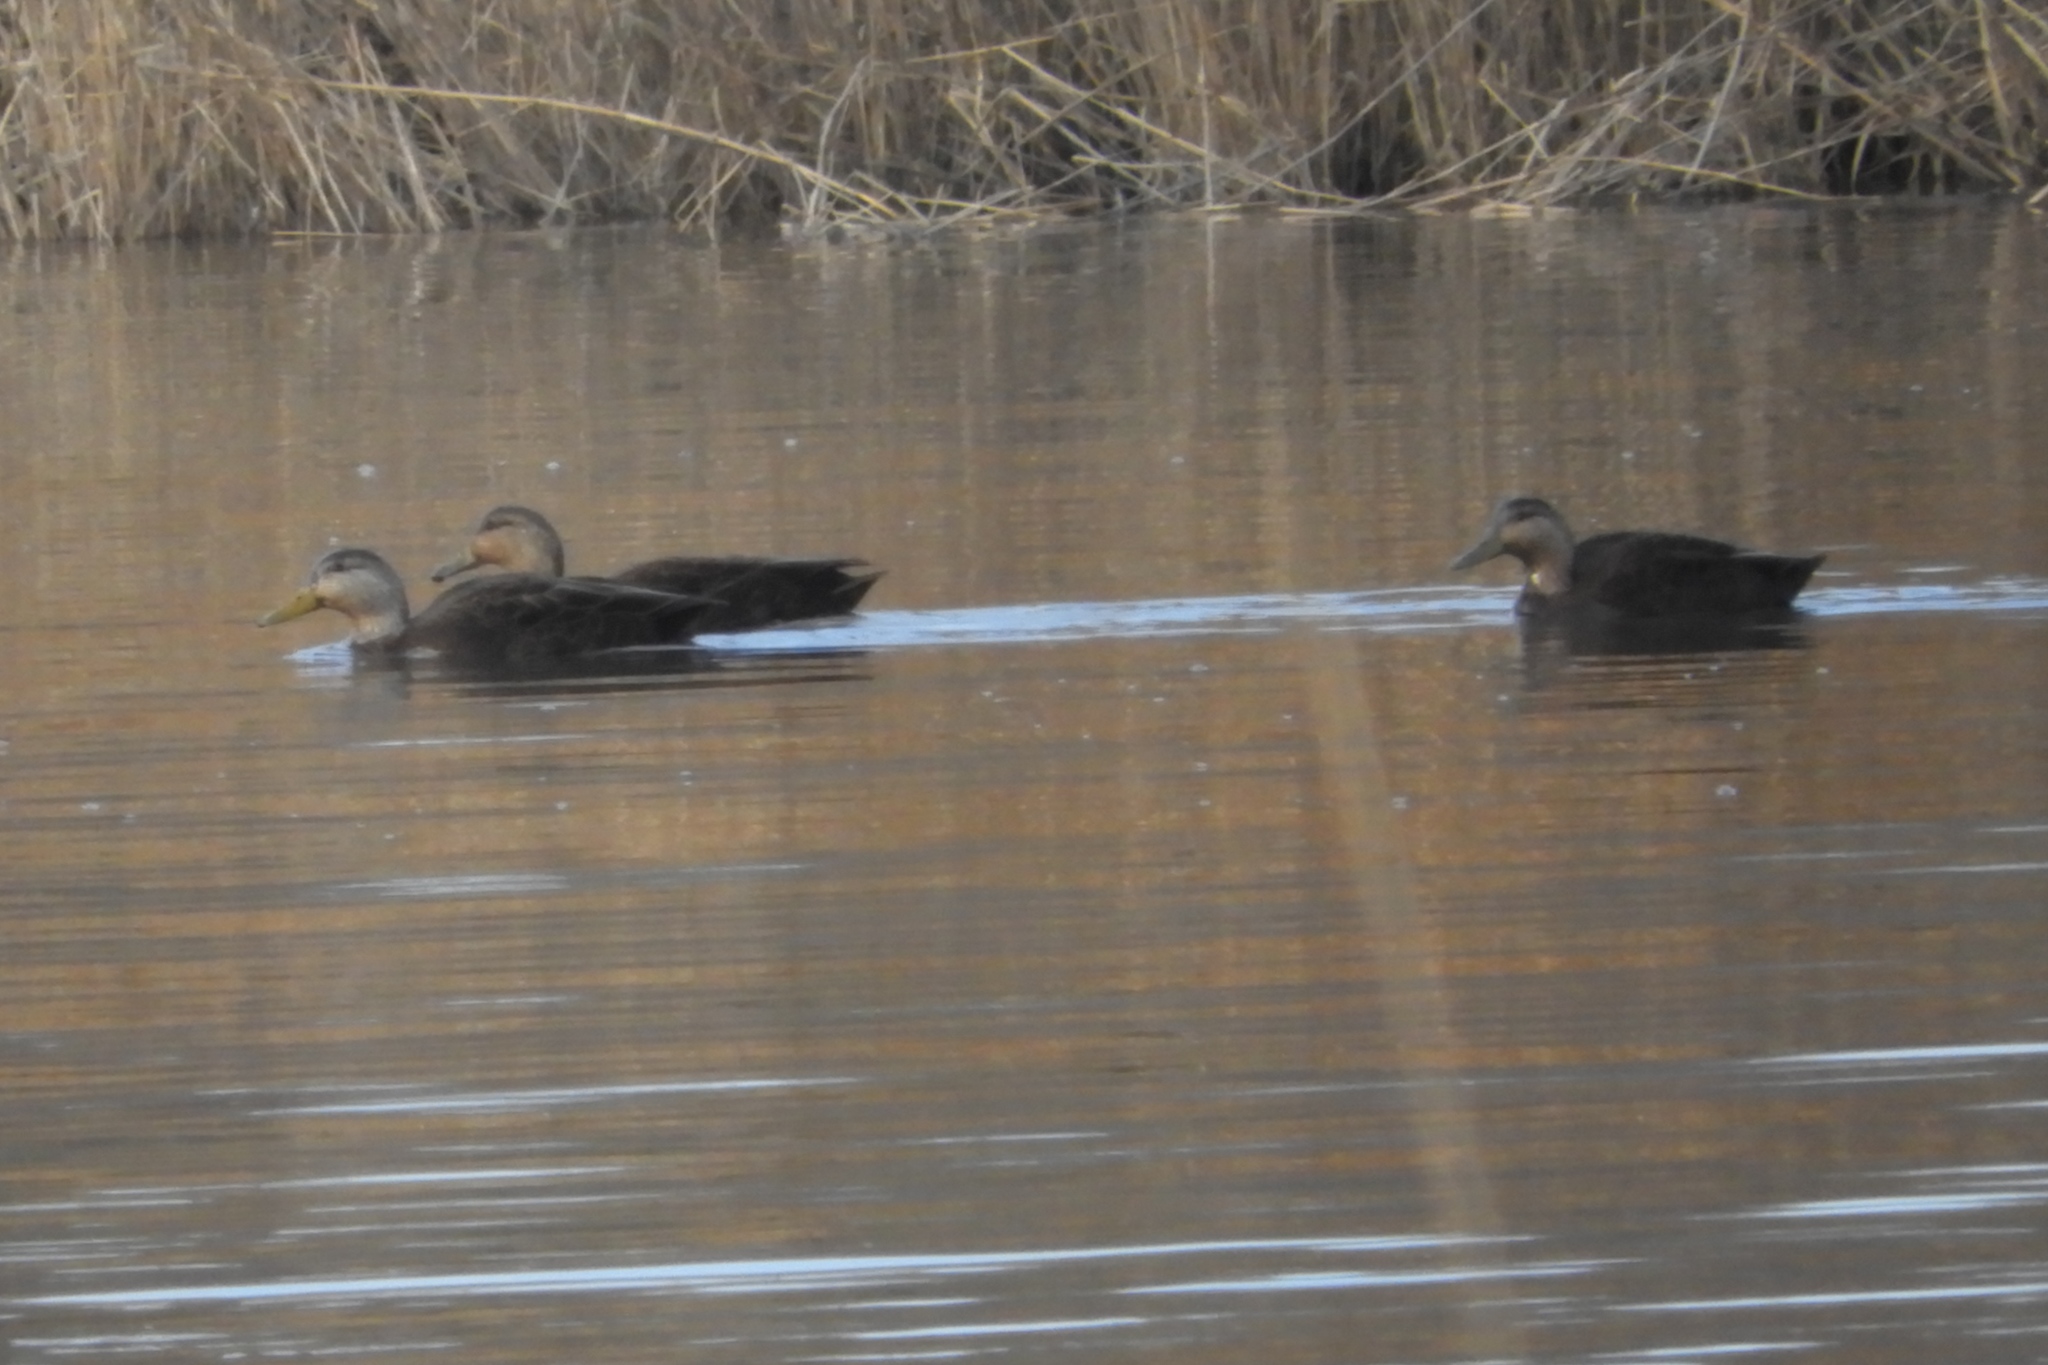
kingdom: Animalia
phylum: Chordata
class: Aves
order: Anseriformes
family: Anatidae
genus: Anas
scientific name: Anas rubripes
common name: American black duck
